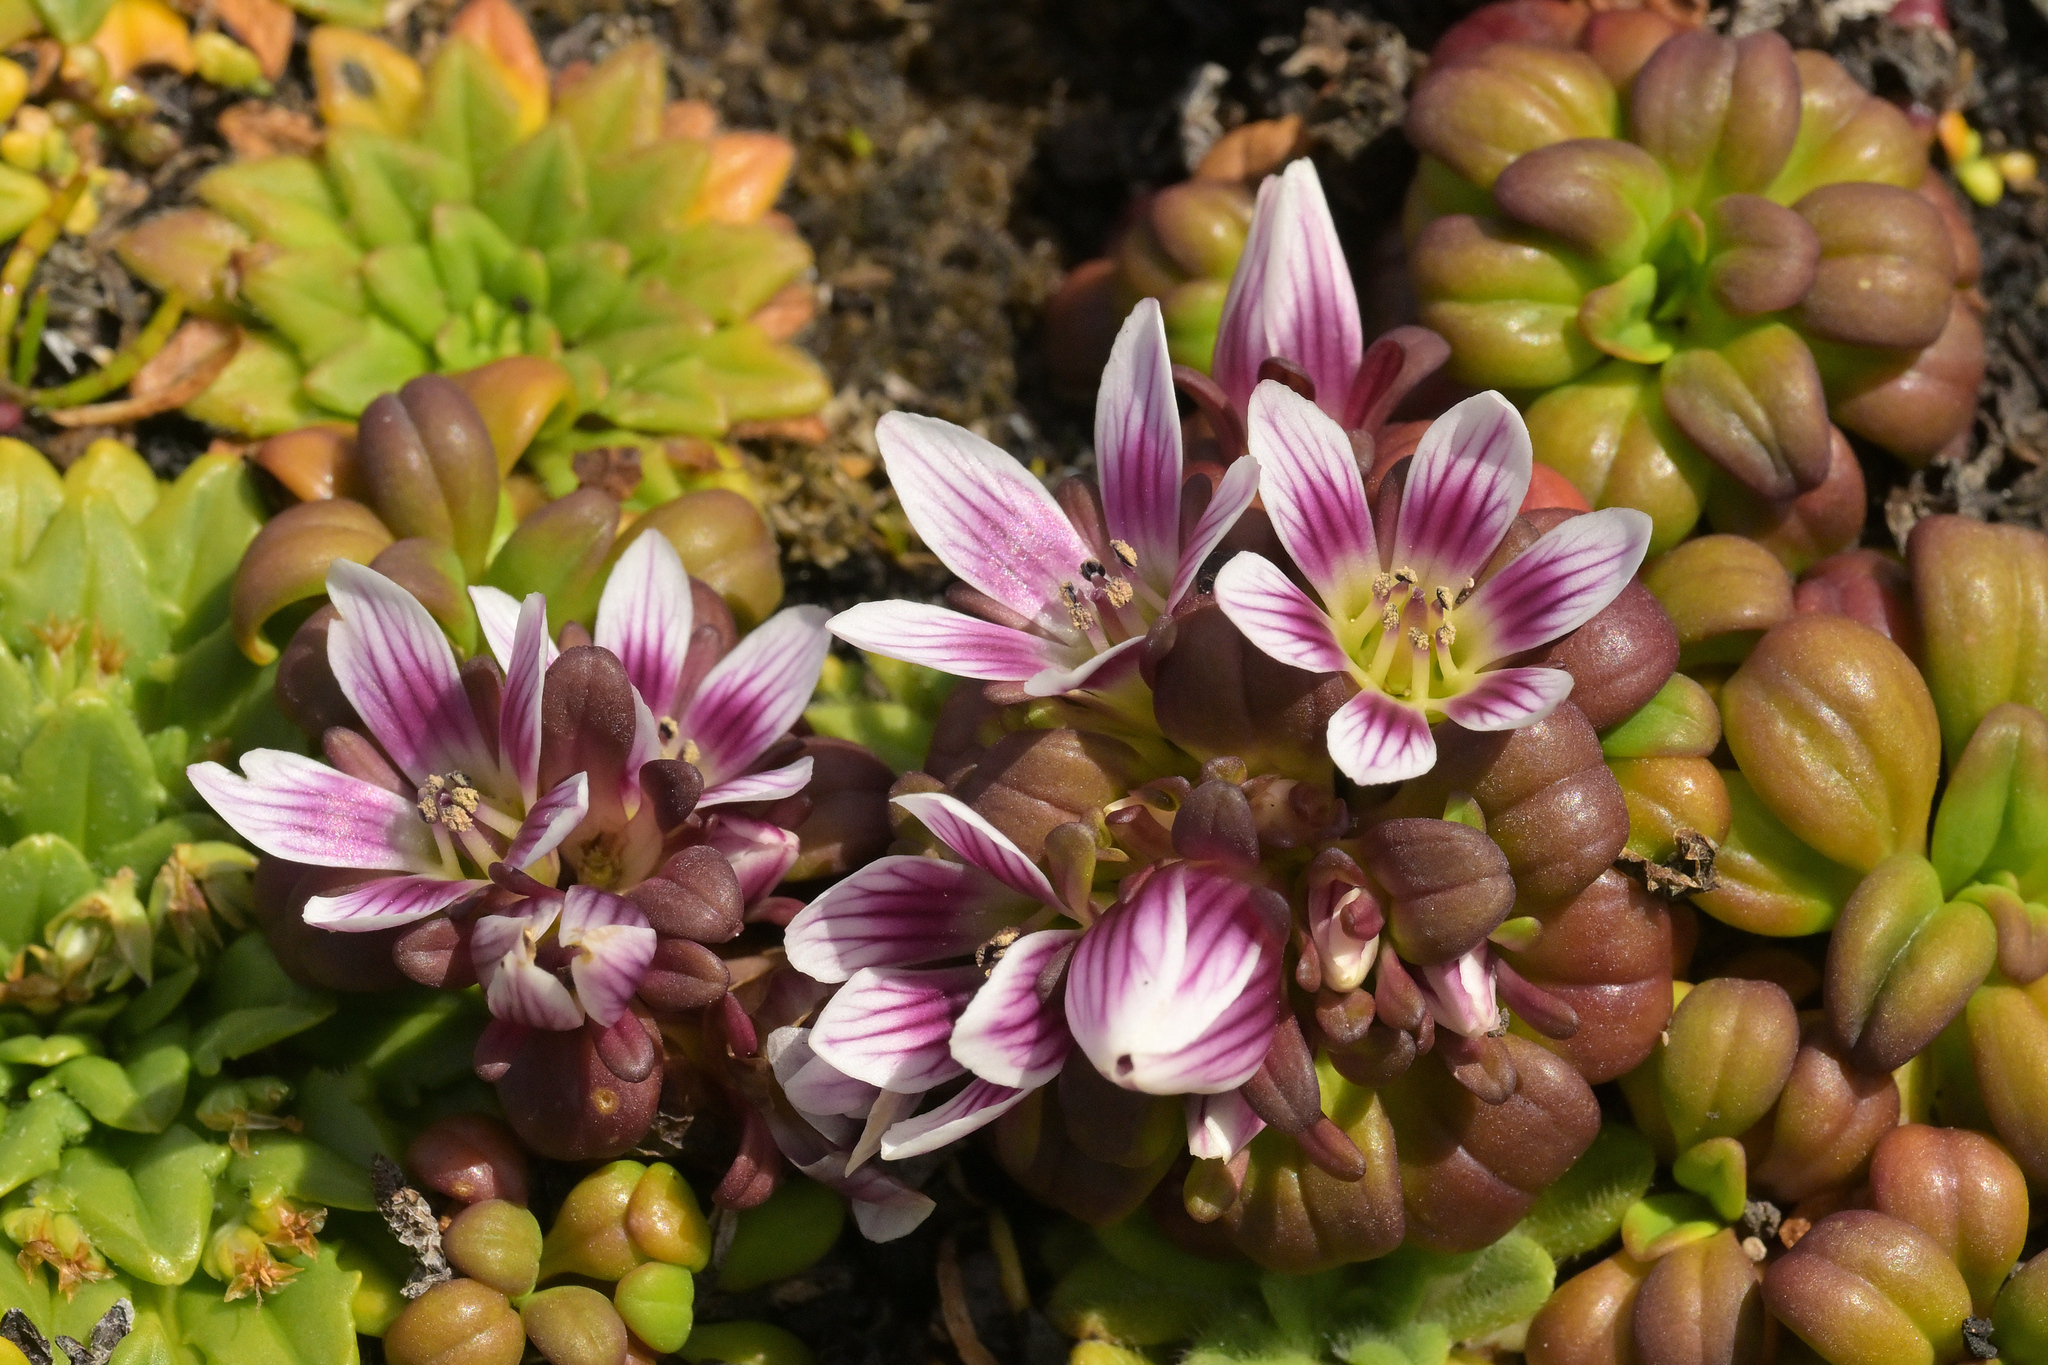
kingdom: Plantae
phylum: Tracheophyta
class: Magnoliopsida
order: Gentianales
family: Gentianaceae
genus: Gentianella
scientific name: Gentianella cerina
